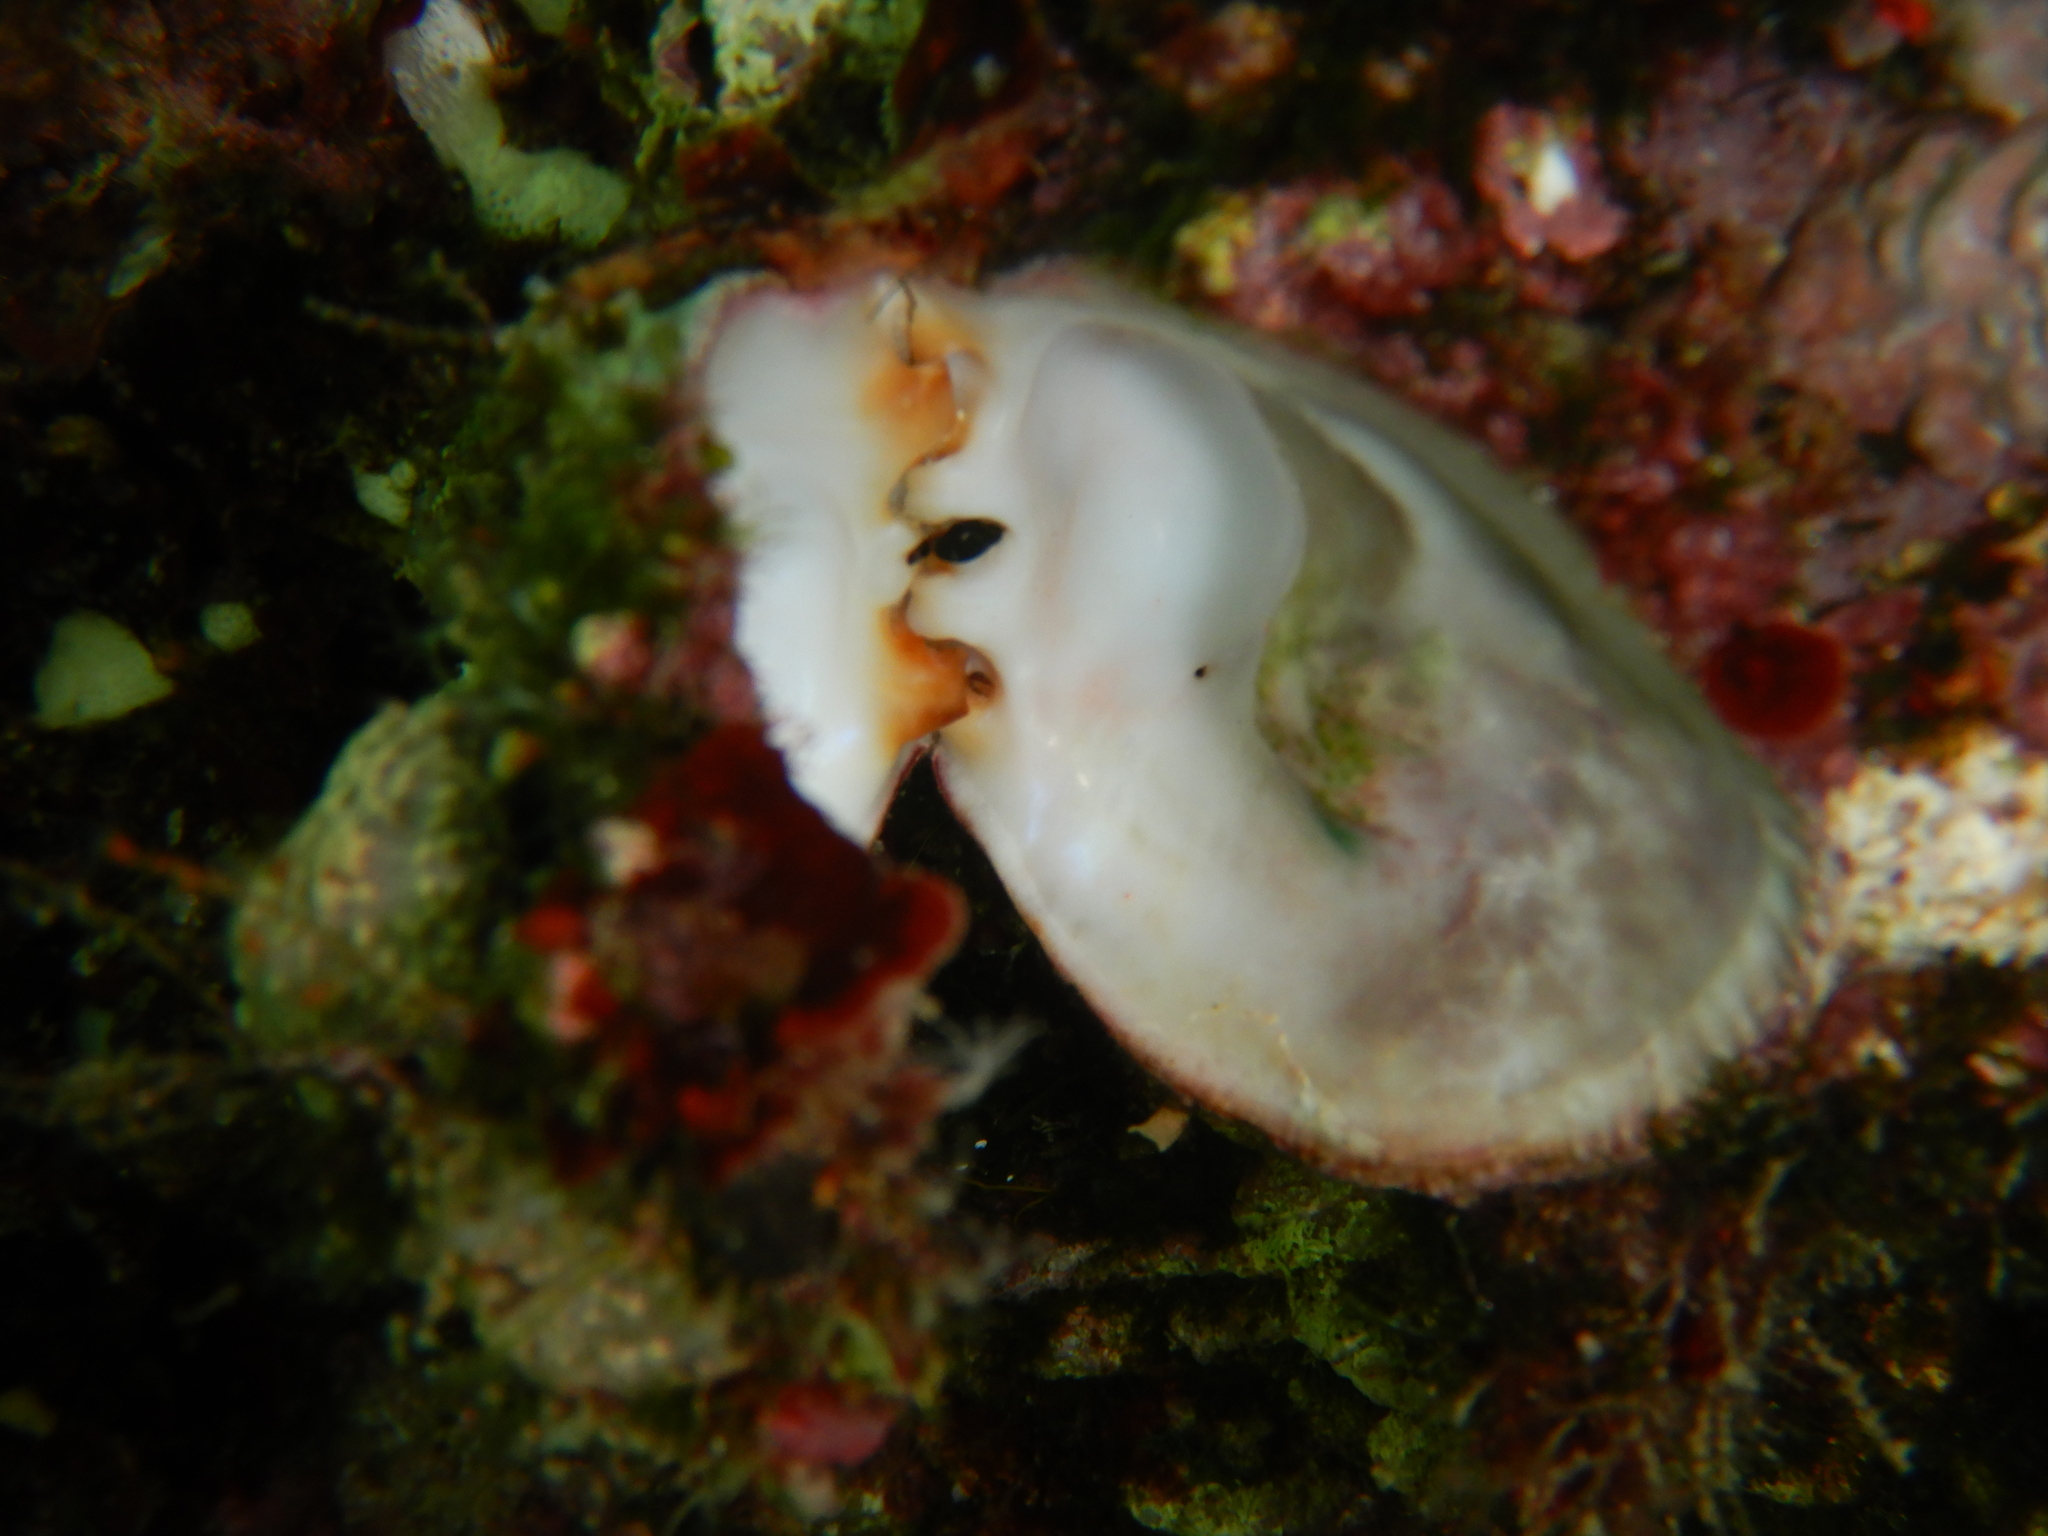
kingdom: Animalia
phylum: Mollusca
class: Bivalvia
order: Pectinida
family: Spondylidae
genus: Spondylus
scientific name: Spondylus gaederopus
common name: European thorny oyster
